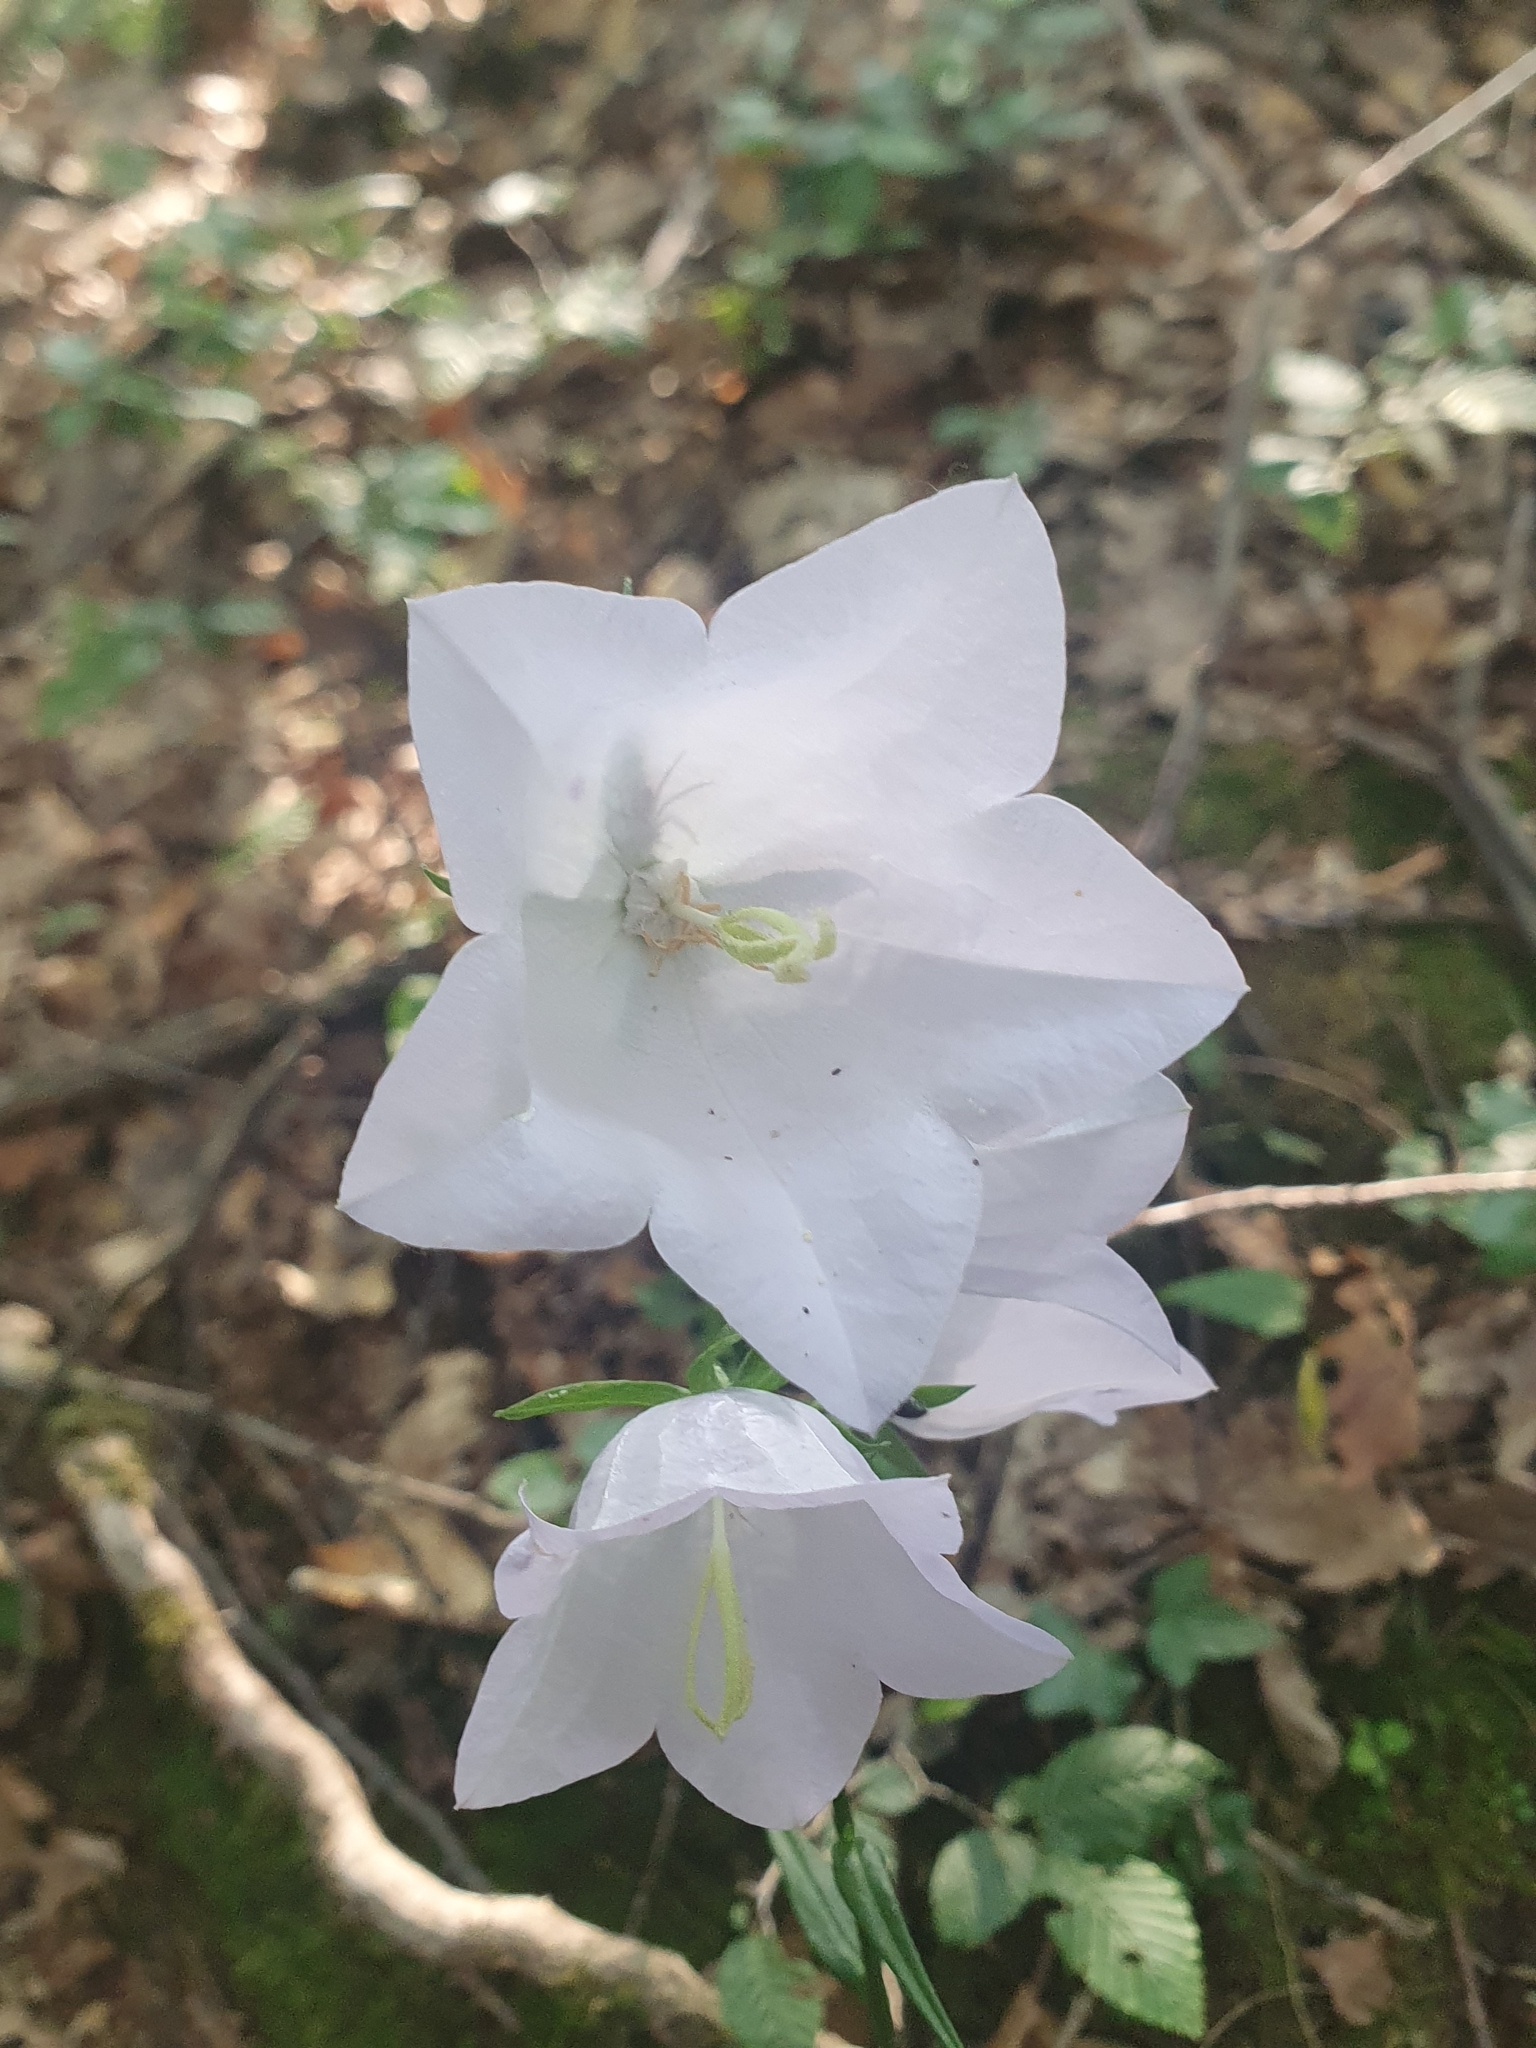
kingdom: Plantae
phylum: Tracheophyta
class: Magnoliopsida
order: Asterales
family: Campanulaceae
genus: Campanula
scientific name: Campanula persicifolia
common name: Peach-leaved bellflower
